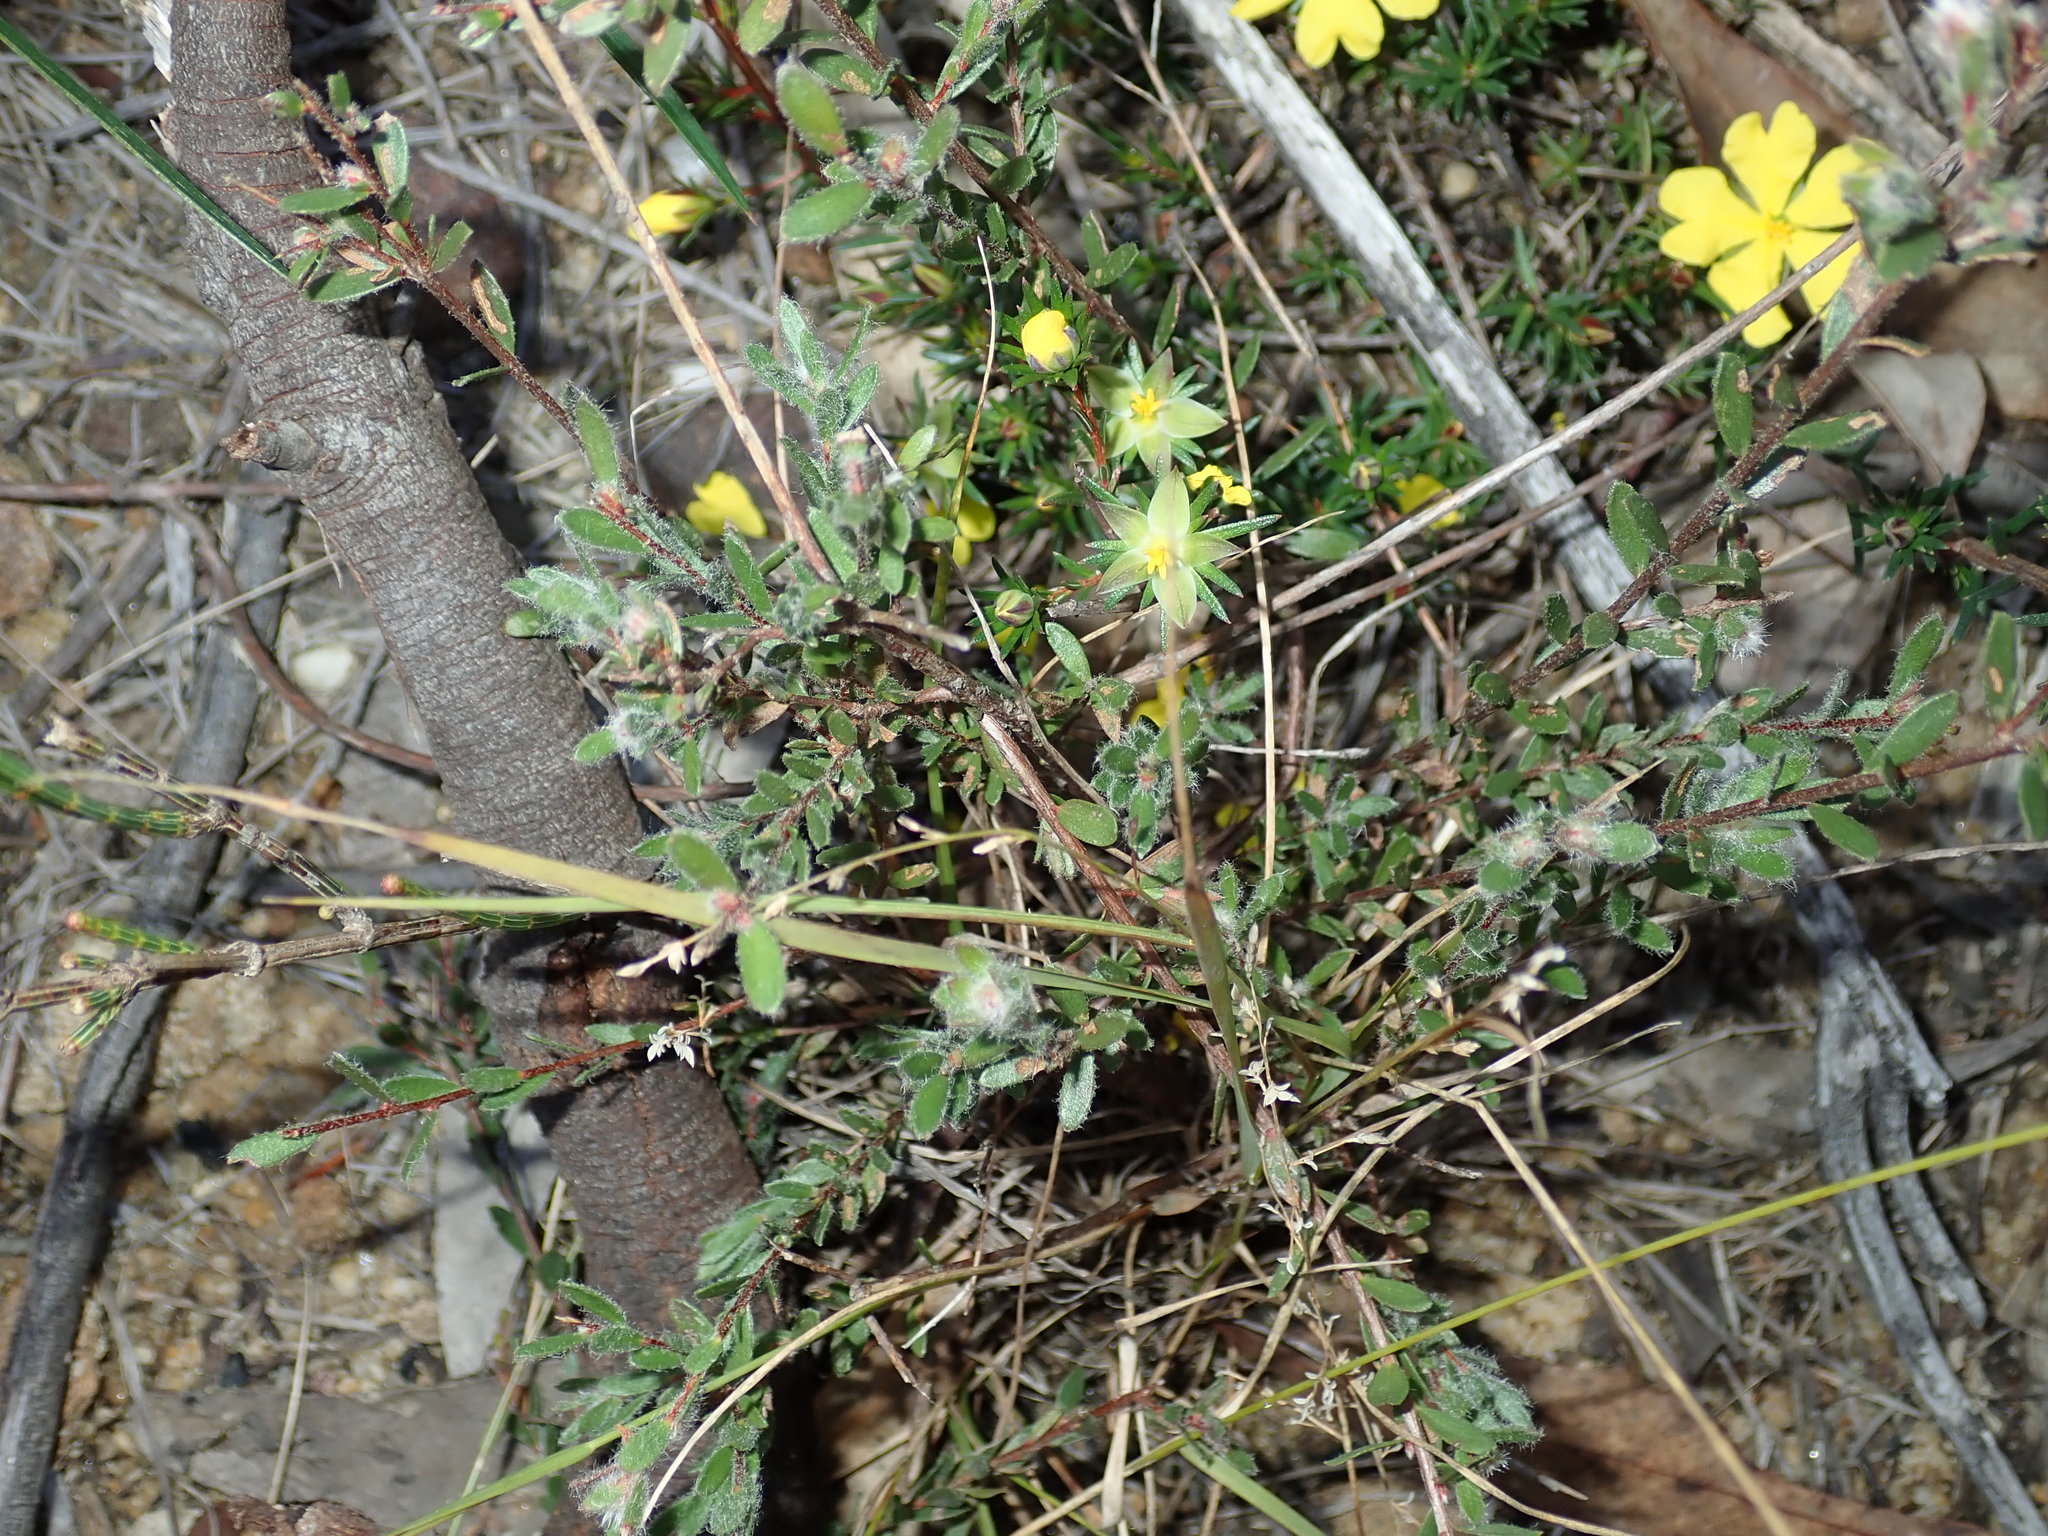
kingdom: Plantae
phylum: Tracheophyta
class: Magnoliopsida
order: Dilleniales
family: Dilleniaceae
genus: Hibbertia
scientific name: Hibbertia cistiflora
